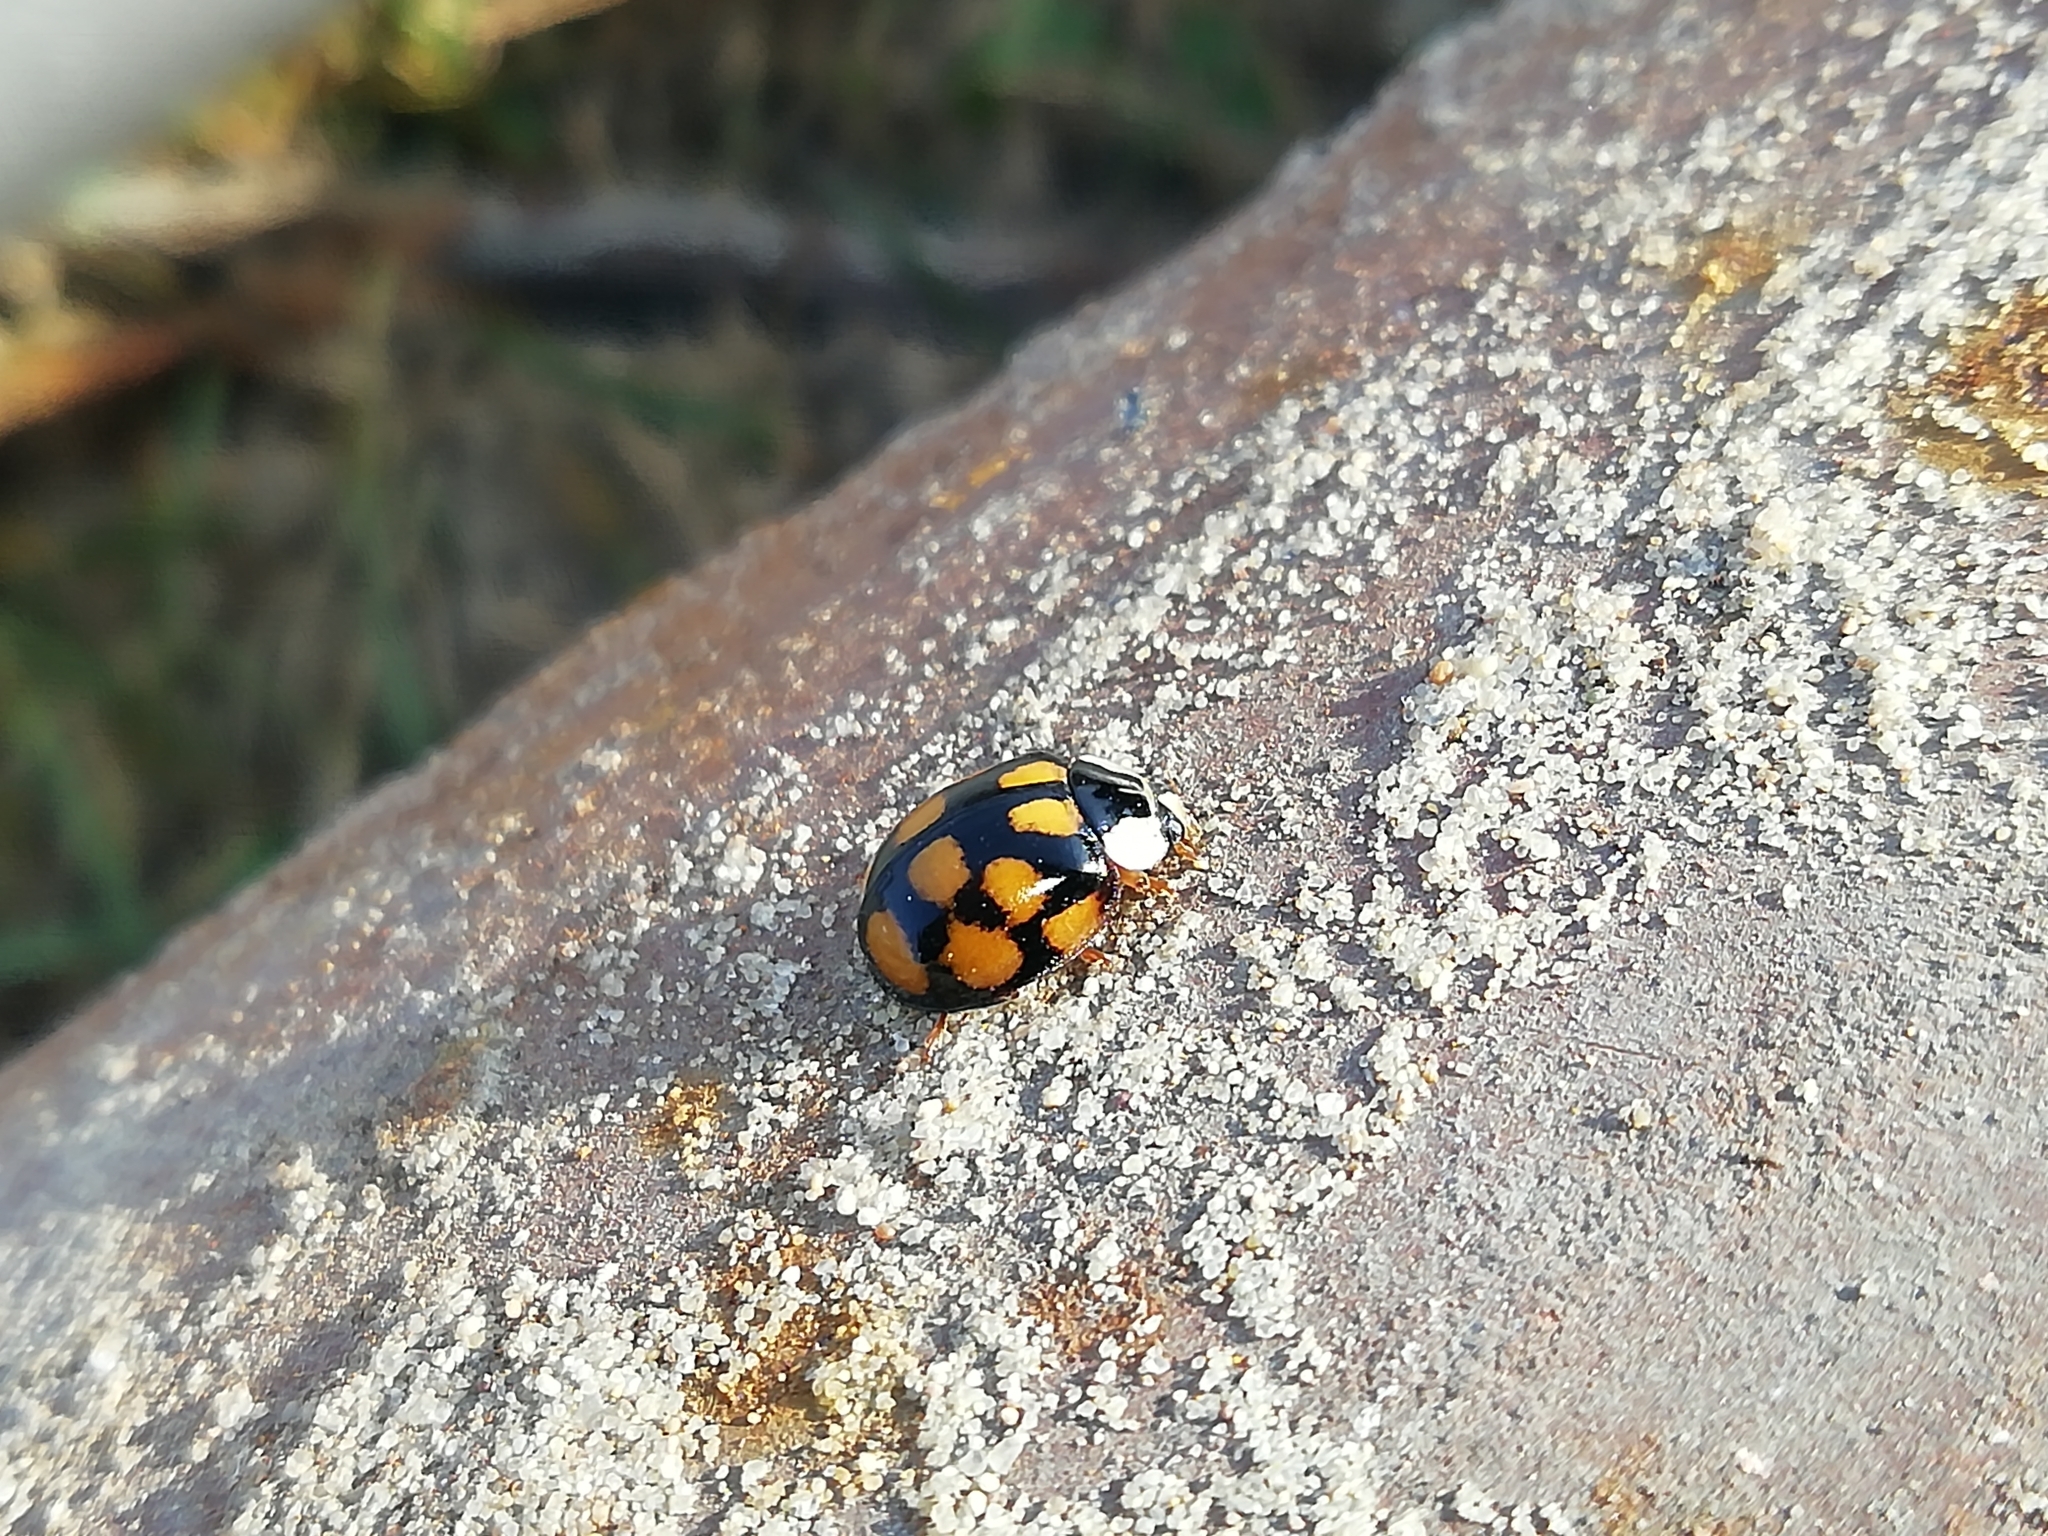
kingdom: Animalia
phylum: Arthropoda
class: Insecta
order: Coleoptera
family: Coccinellidae
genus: Harmonia
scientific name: Harmonia axyridis
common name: Harlequin ladybird
